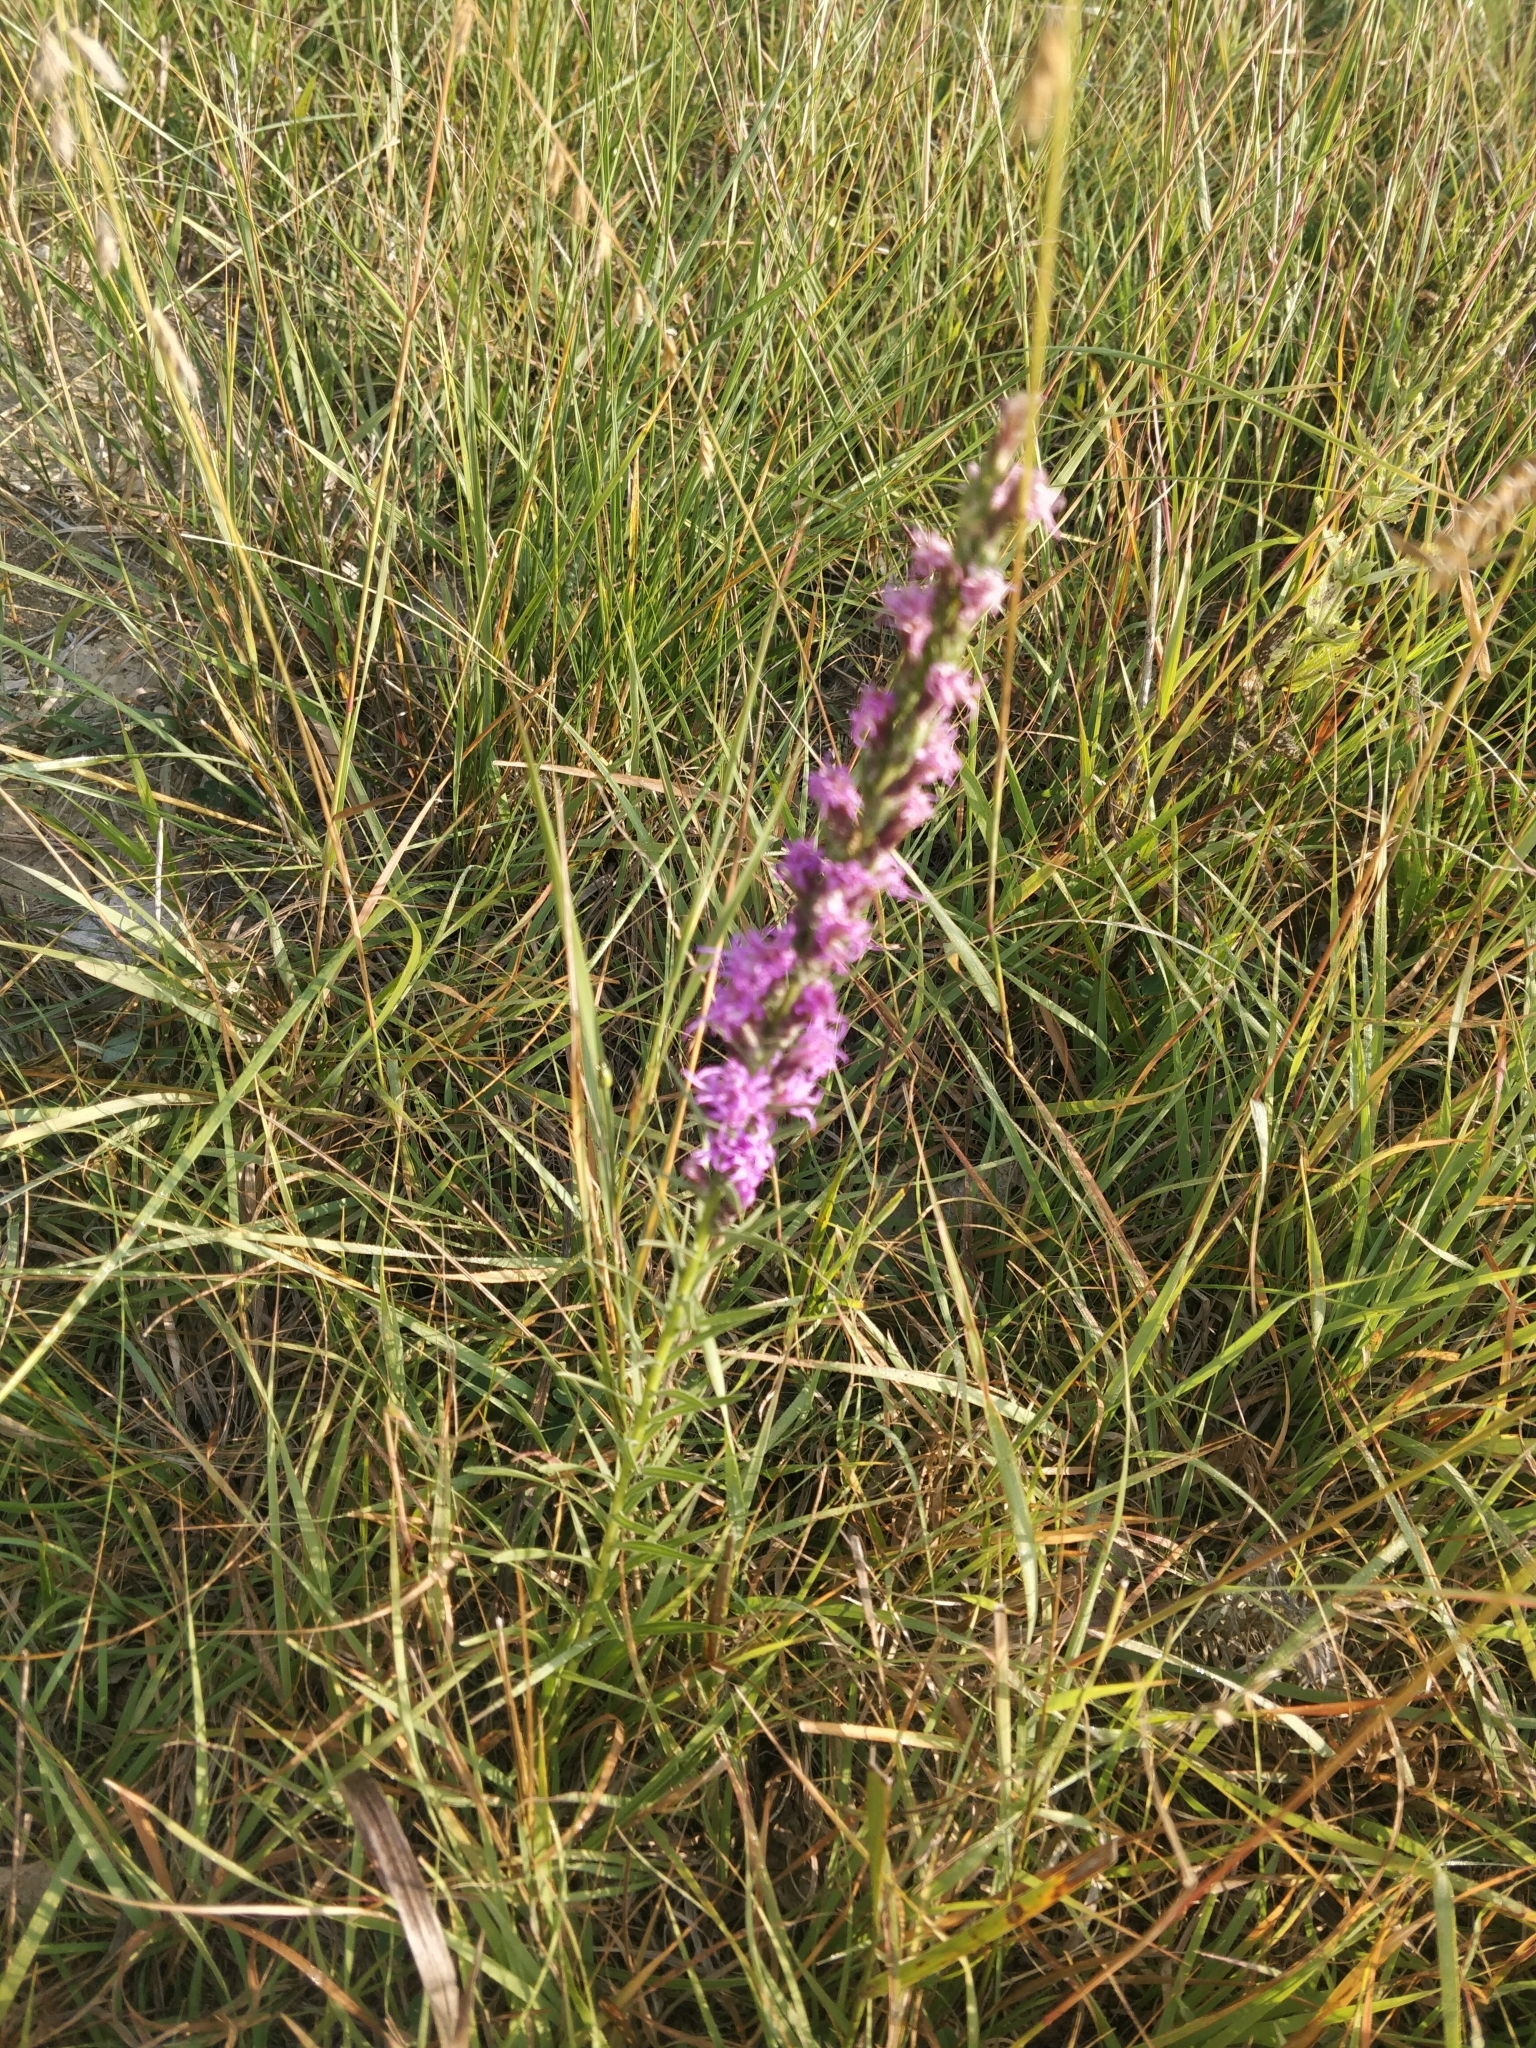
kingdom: Plantae
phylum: Tracheophyta
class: Magnoliopsida
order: Asterales
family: Asteraceae
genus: Liatris
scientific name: Liatris punctata
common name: Dotted gayfeather
